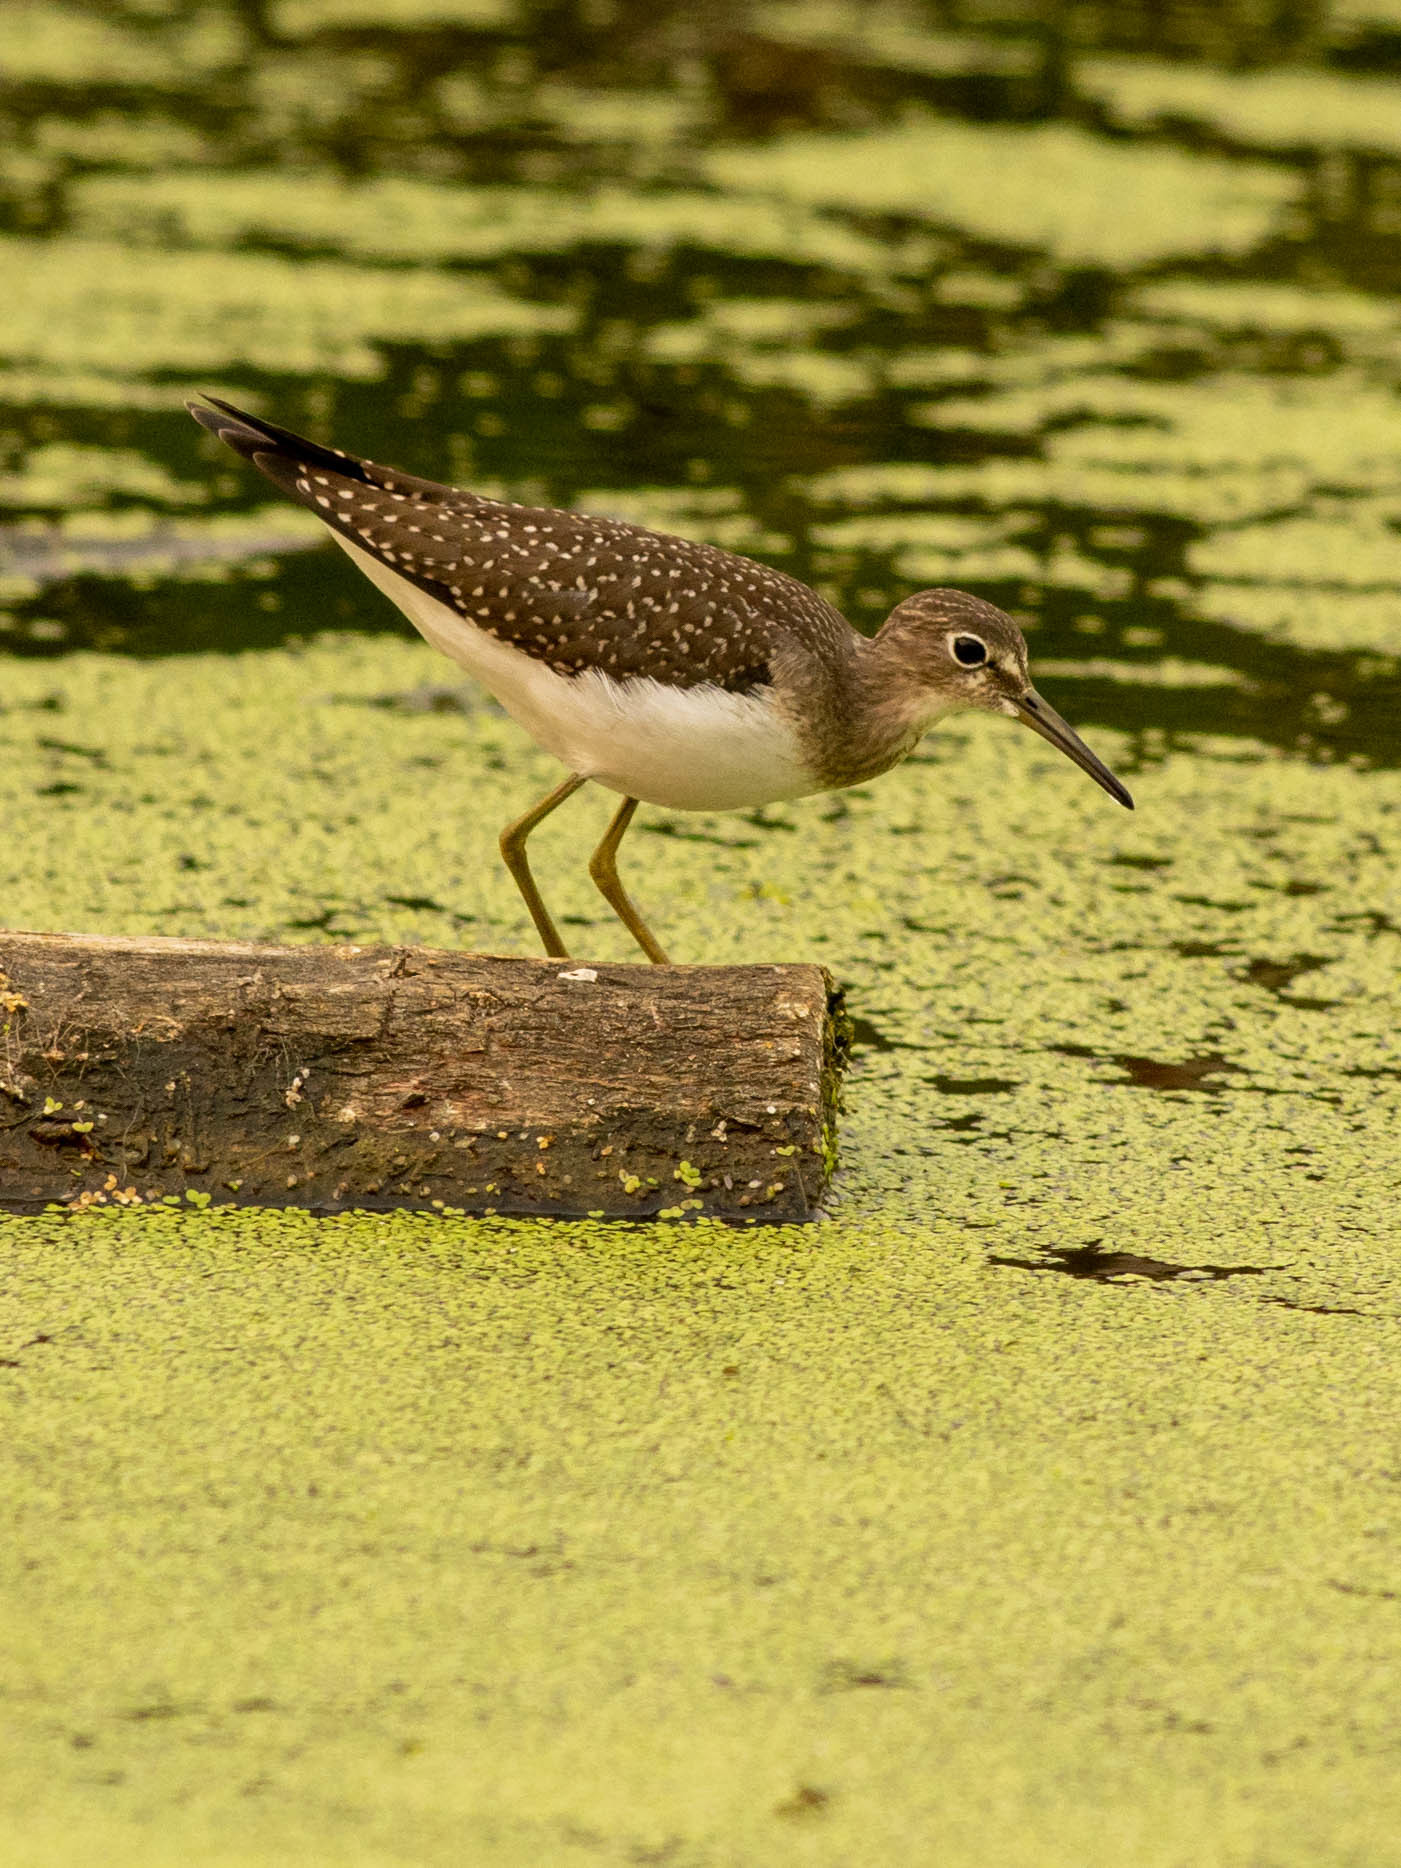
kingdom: Animalia
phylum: Chordata
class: Aves
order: Charadriiformes
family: Scolopacidae
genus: Tringa
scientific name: Tringa solitaria
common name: Solitary sandpiper
